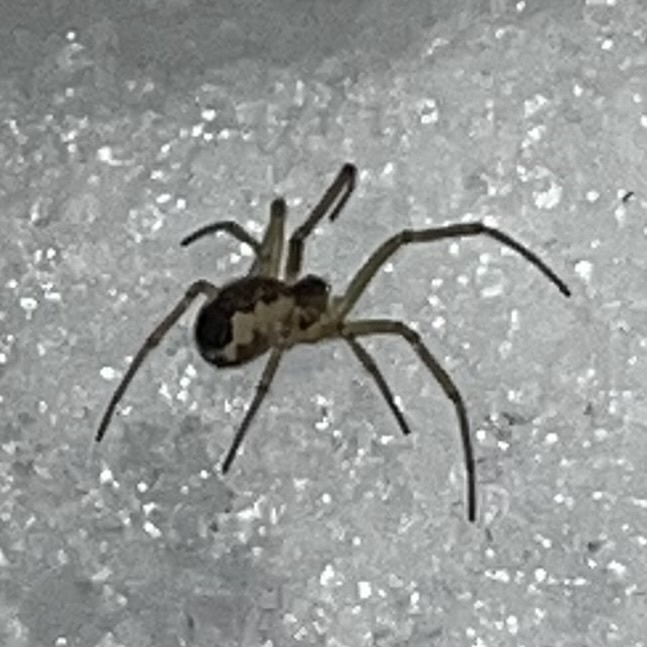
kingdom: Animalia
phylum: Arthropoda
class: Arachnida
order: Araneae
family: Linyphiidae
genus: Neriene
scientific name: Neriene peltata
